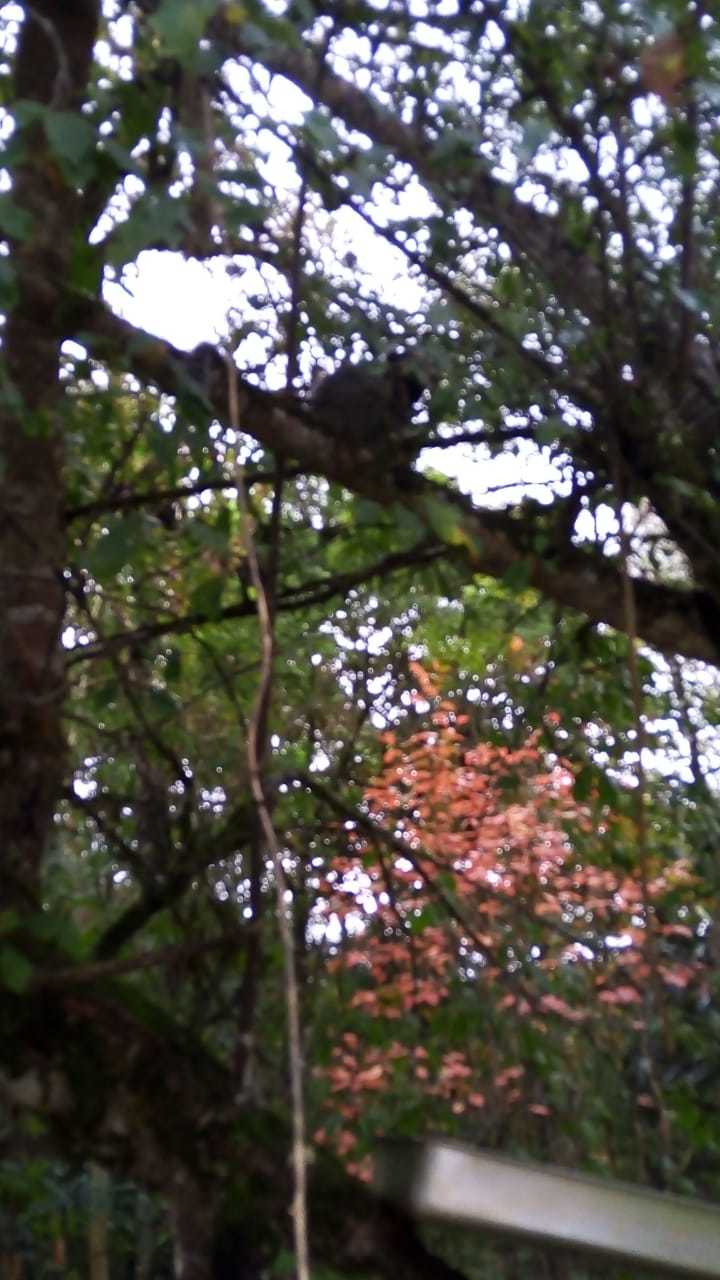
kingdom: Animalia
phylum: Chordata
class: Mammalia
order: Primates
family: Callitrichidae
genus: Callithrix
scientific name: Callithrix penicillata
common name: Black-tufted marmoset
